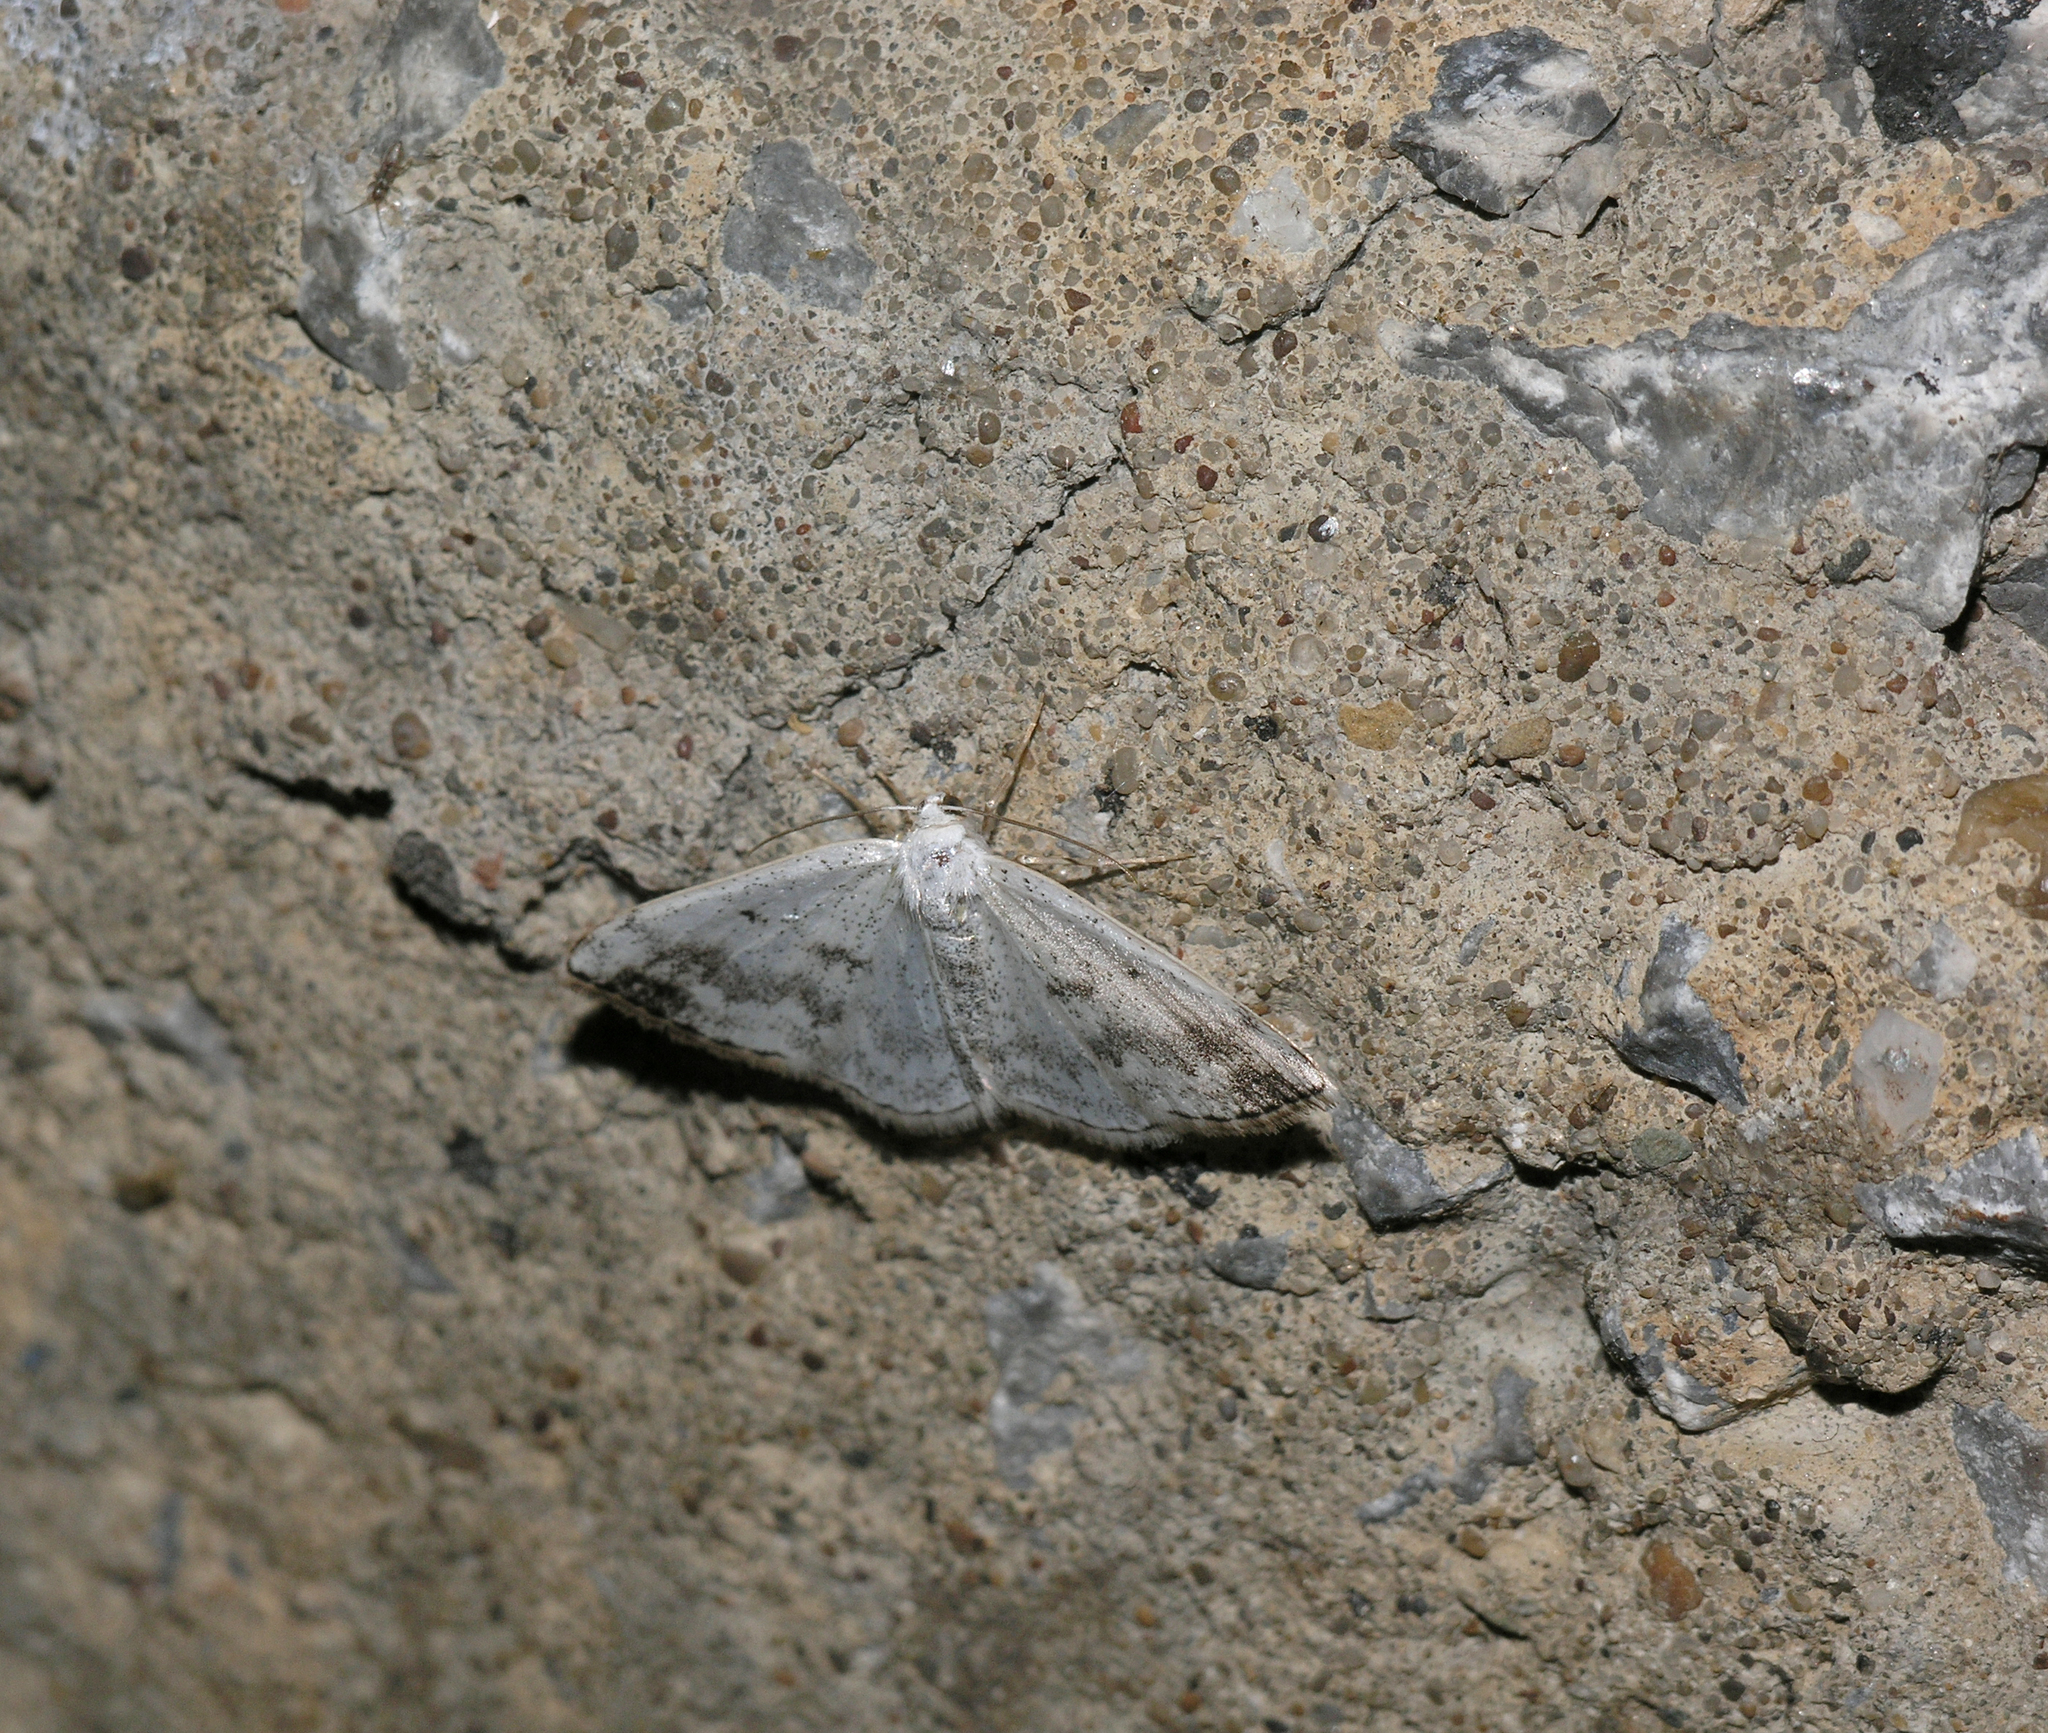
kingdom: Animalia
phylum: Arthropoda
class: Insecta
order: Lepidoptera
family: Geometridae
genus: Lomographa
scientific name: Lomographa temerata
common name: Clouded silver
